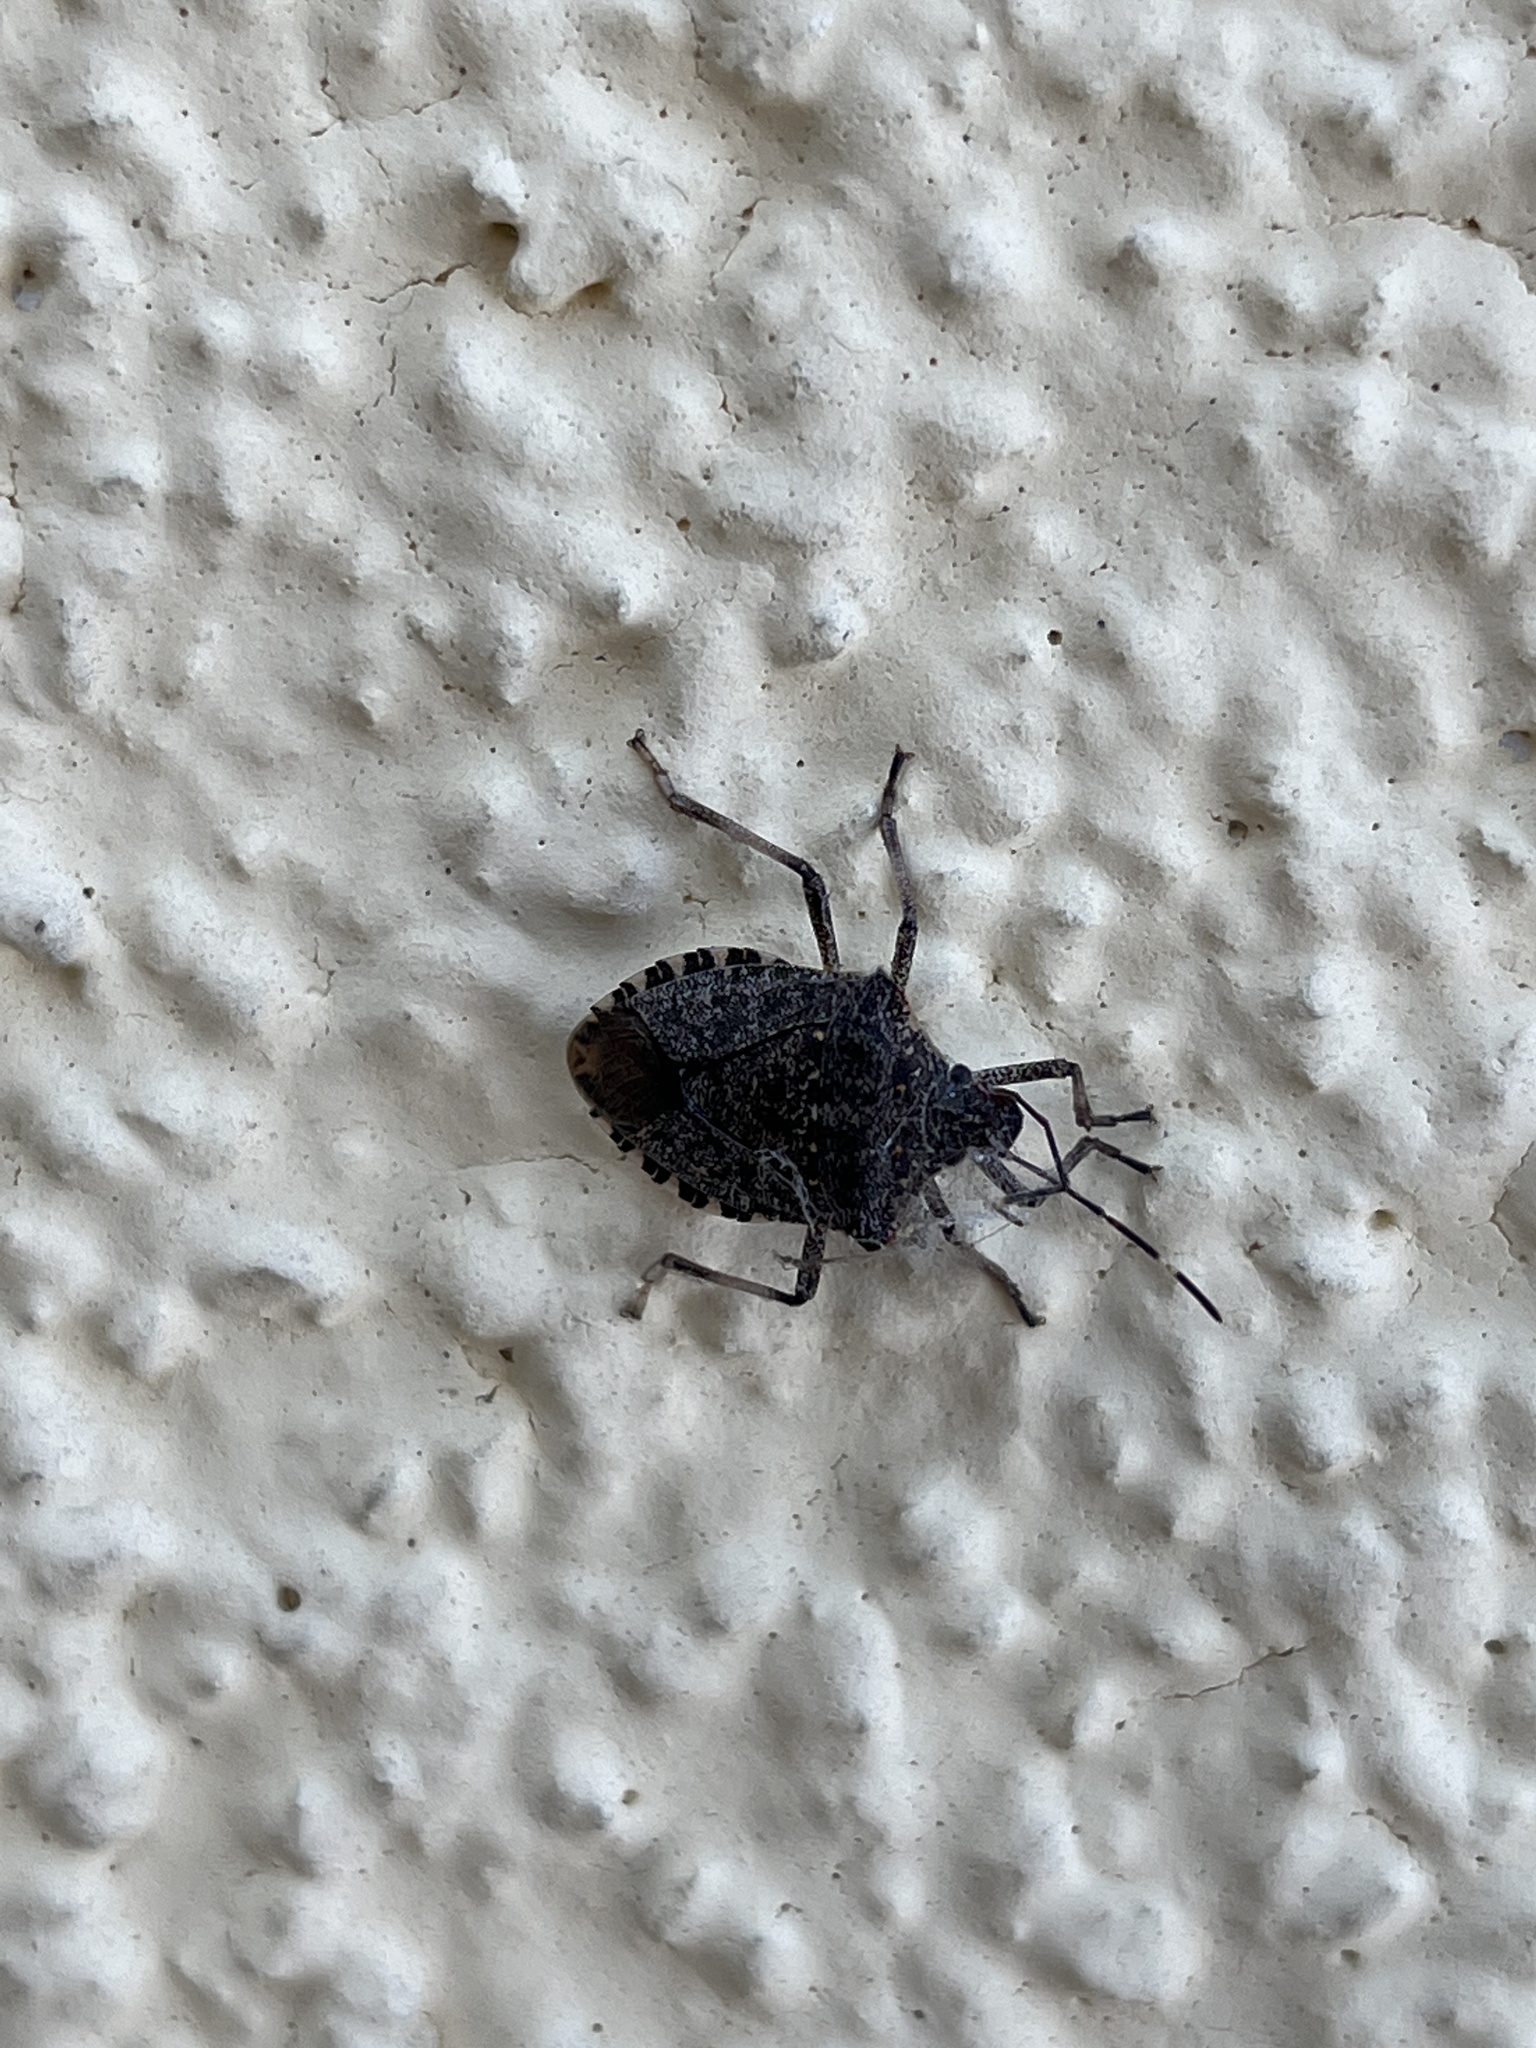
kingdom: Animalia
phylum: Arthropoda
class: Insecta
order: Hemiptera
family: Pentatomidae
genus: Halyomorpha
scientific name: Halyomorpha halys
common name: Brown marmorated stink bug
